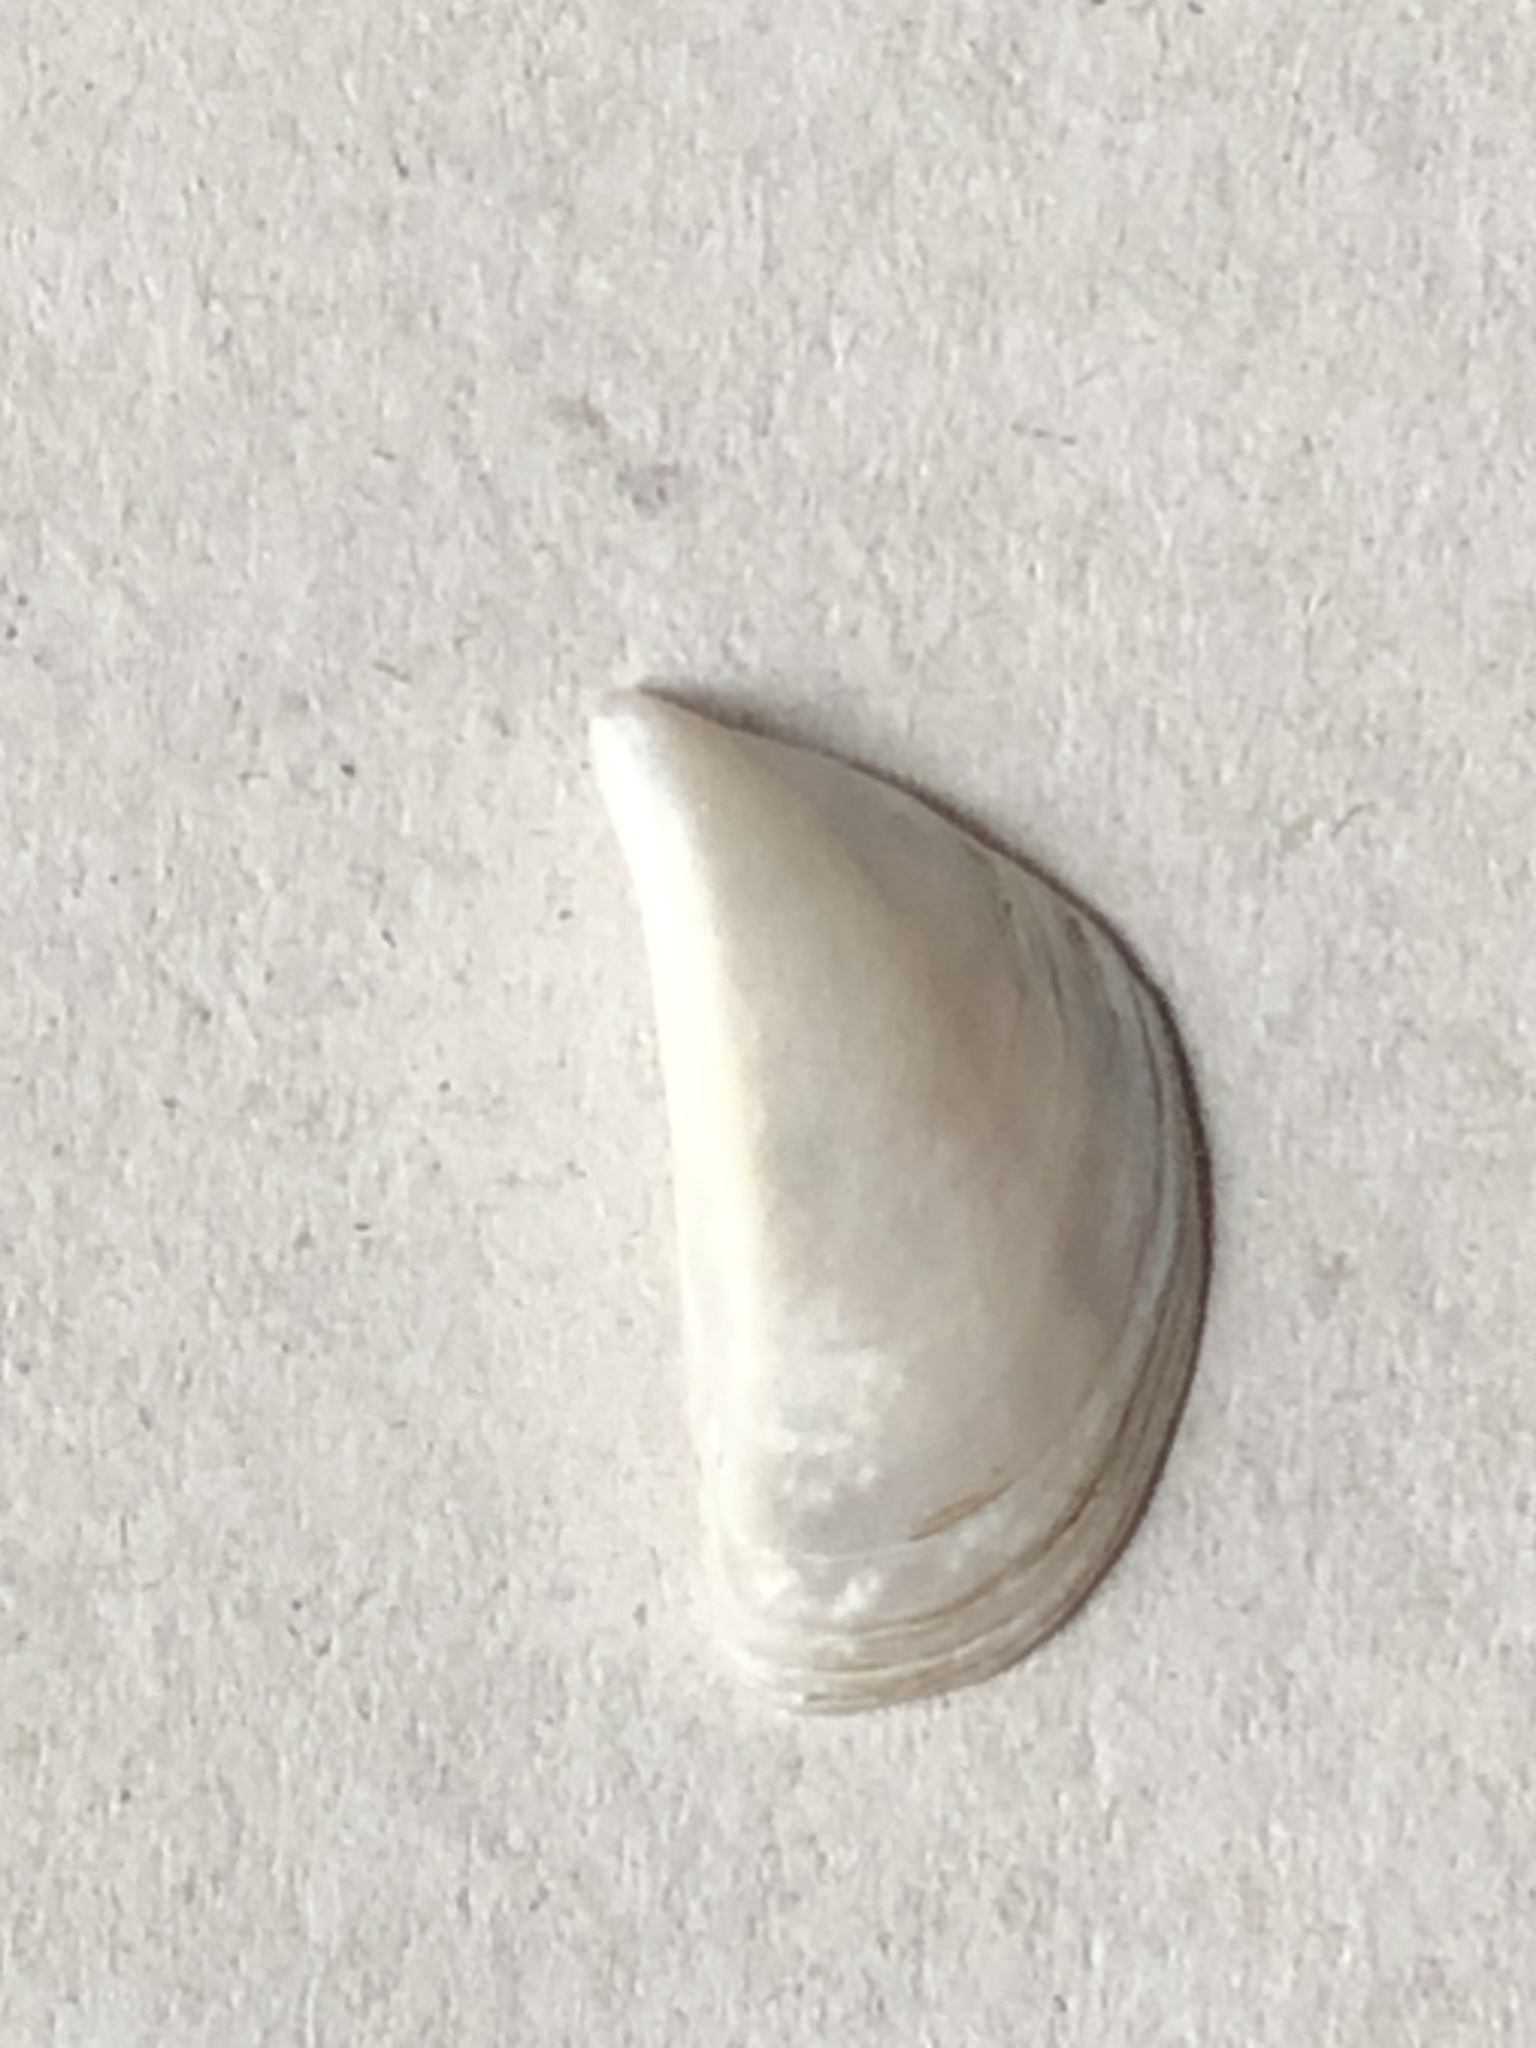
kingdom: Animalia
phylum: Mollusca
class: Bivalvia
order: Myida
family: Dreissenidae
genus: Dreissena
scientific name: Dreissena polymorpha
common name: Zebra mussel
